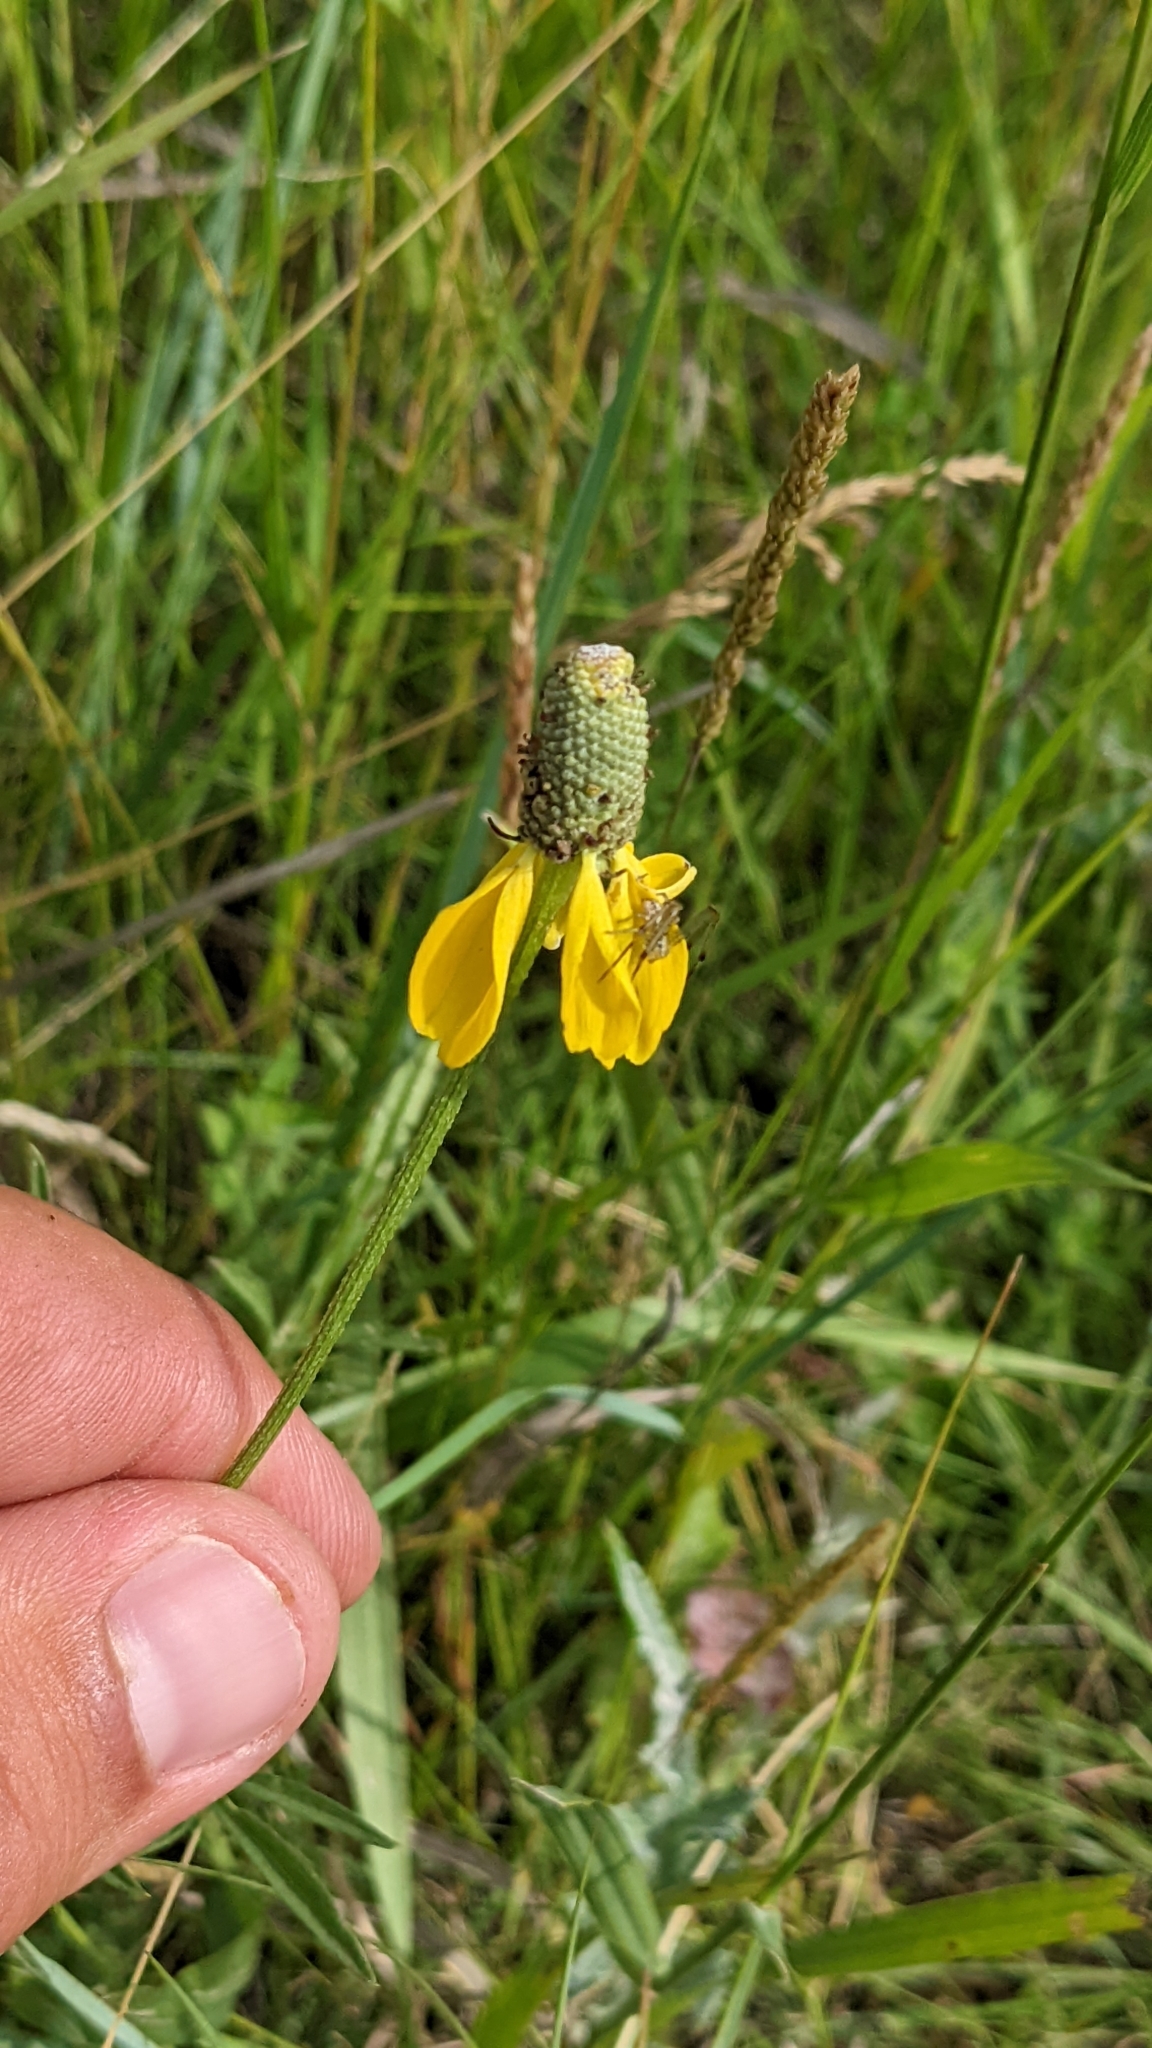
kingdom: Plantae
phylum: Tracheophyta
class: Magnoliopsida
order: Asterales
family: Asteraceae
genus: Ratibida
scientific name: Ratibida columnifera
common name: Prairie coneflower
